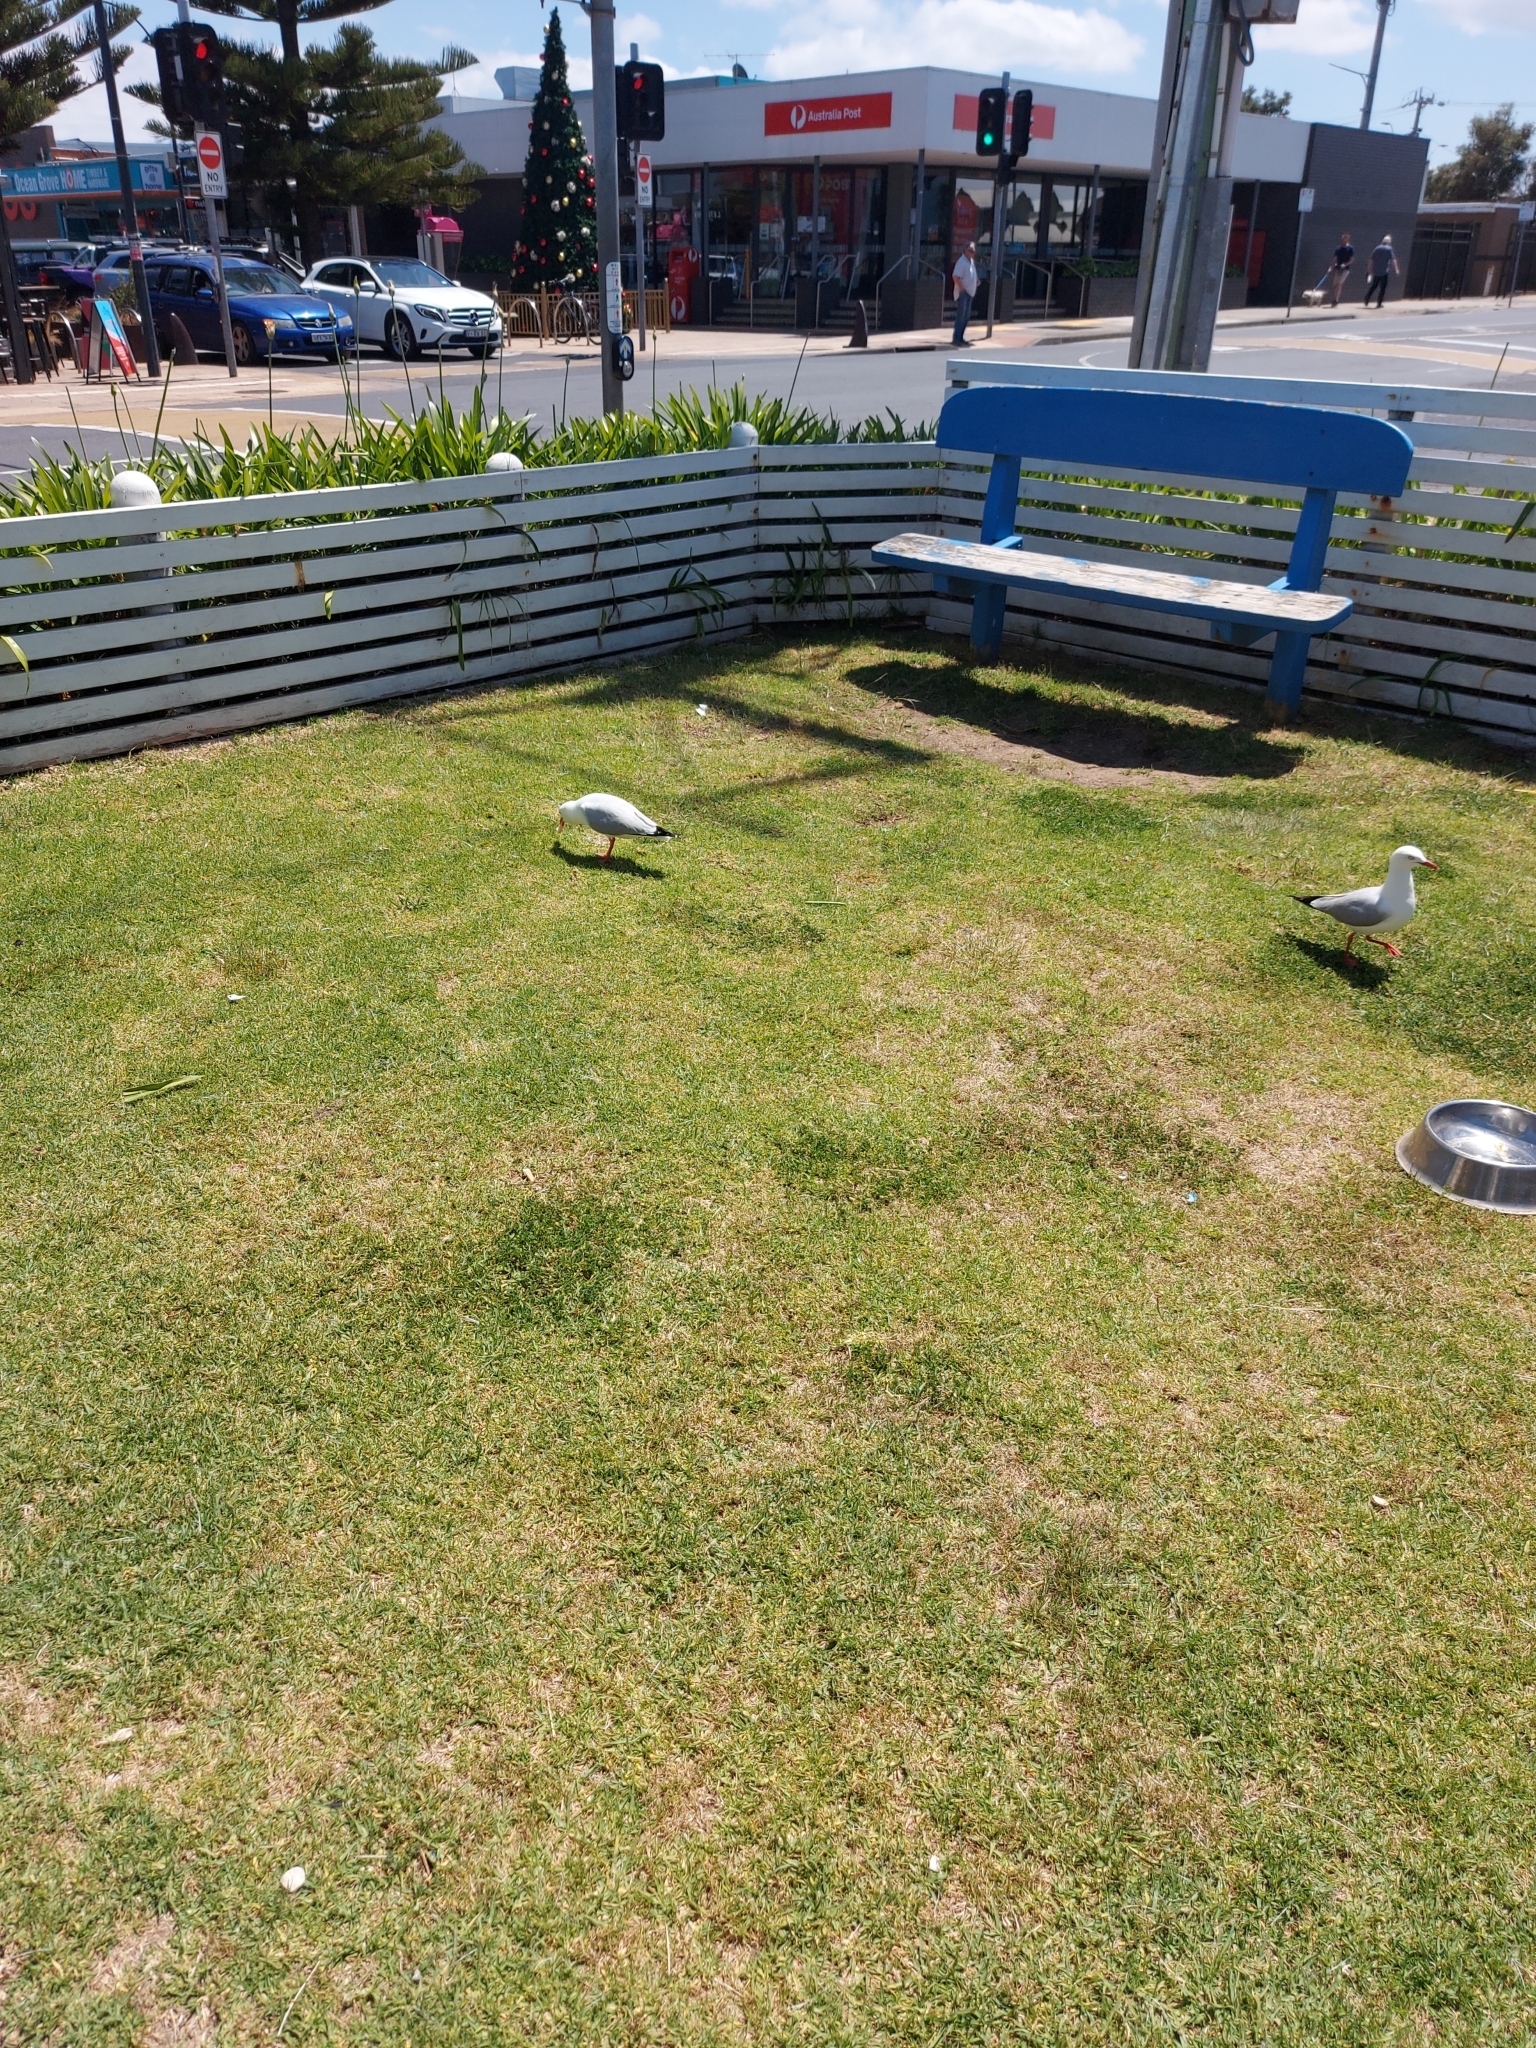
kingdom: Animalia
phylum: Chordata
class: Aves
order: Charadriiformes
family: Laridae
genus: Chroicocephalus
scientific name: Chroicocephalus novaehollandiae
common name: Silver gull
